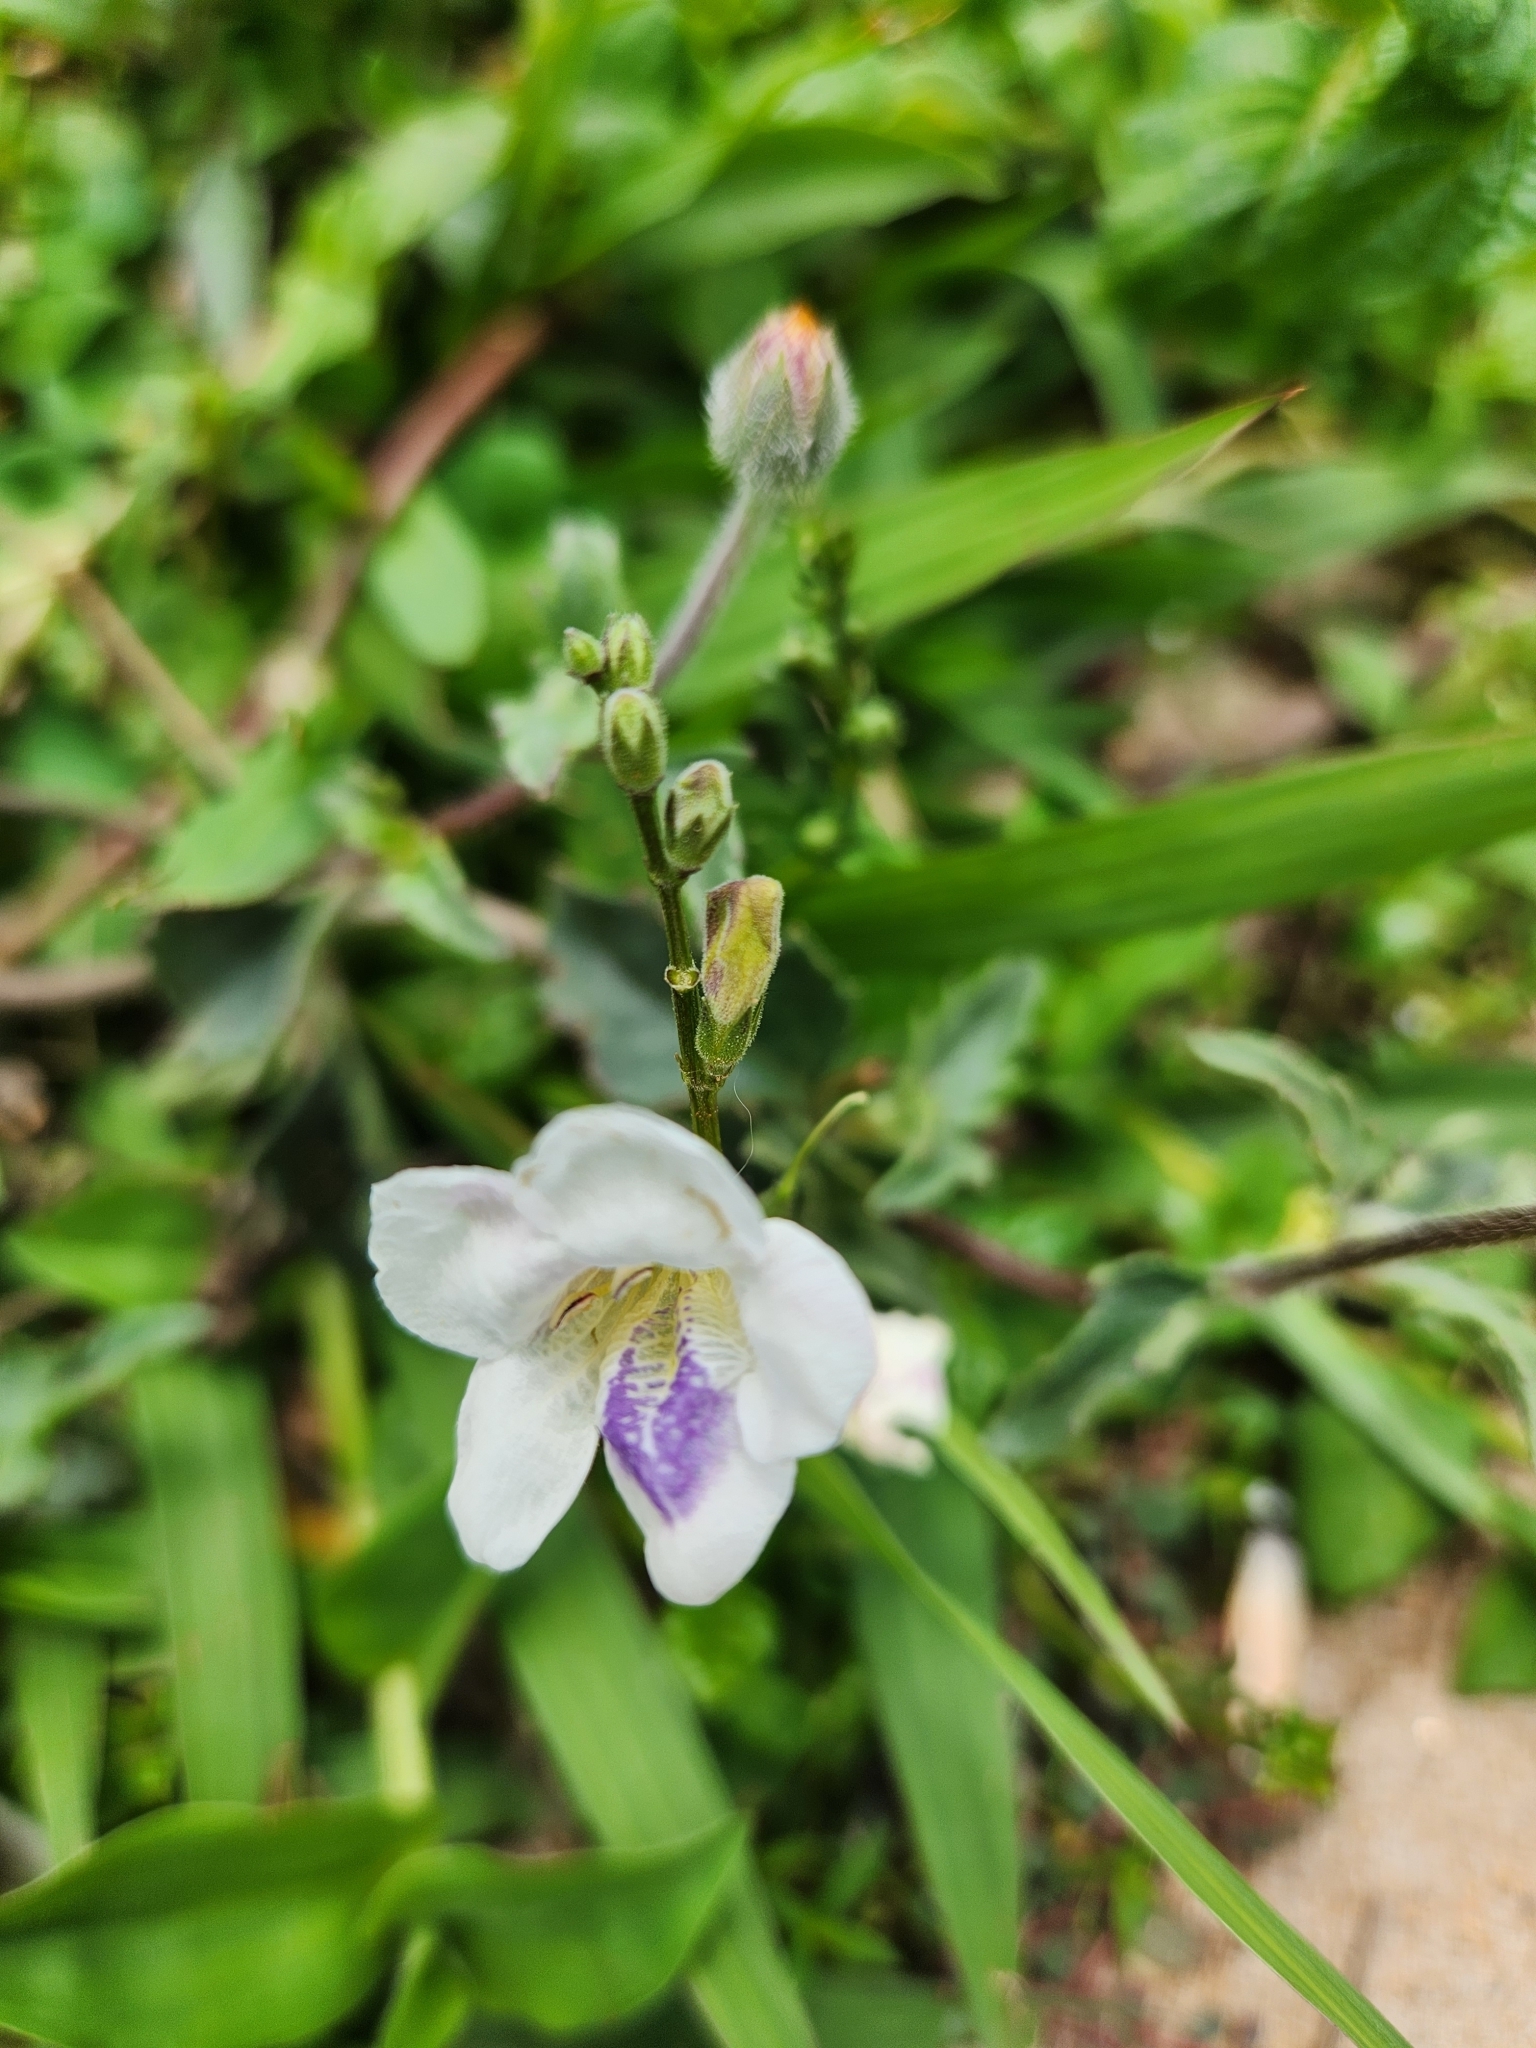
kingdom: Plantae
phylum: Tracheophyta
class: Magnoliopsida
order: Lamiales
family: Acanthaceae
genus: Asystasia
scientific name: Asystasia intrusa
